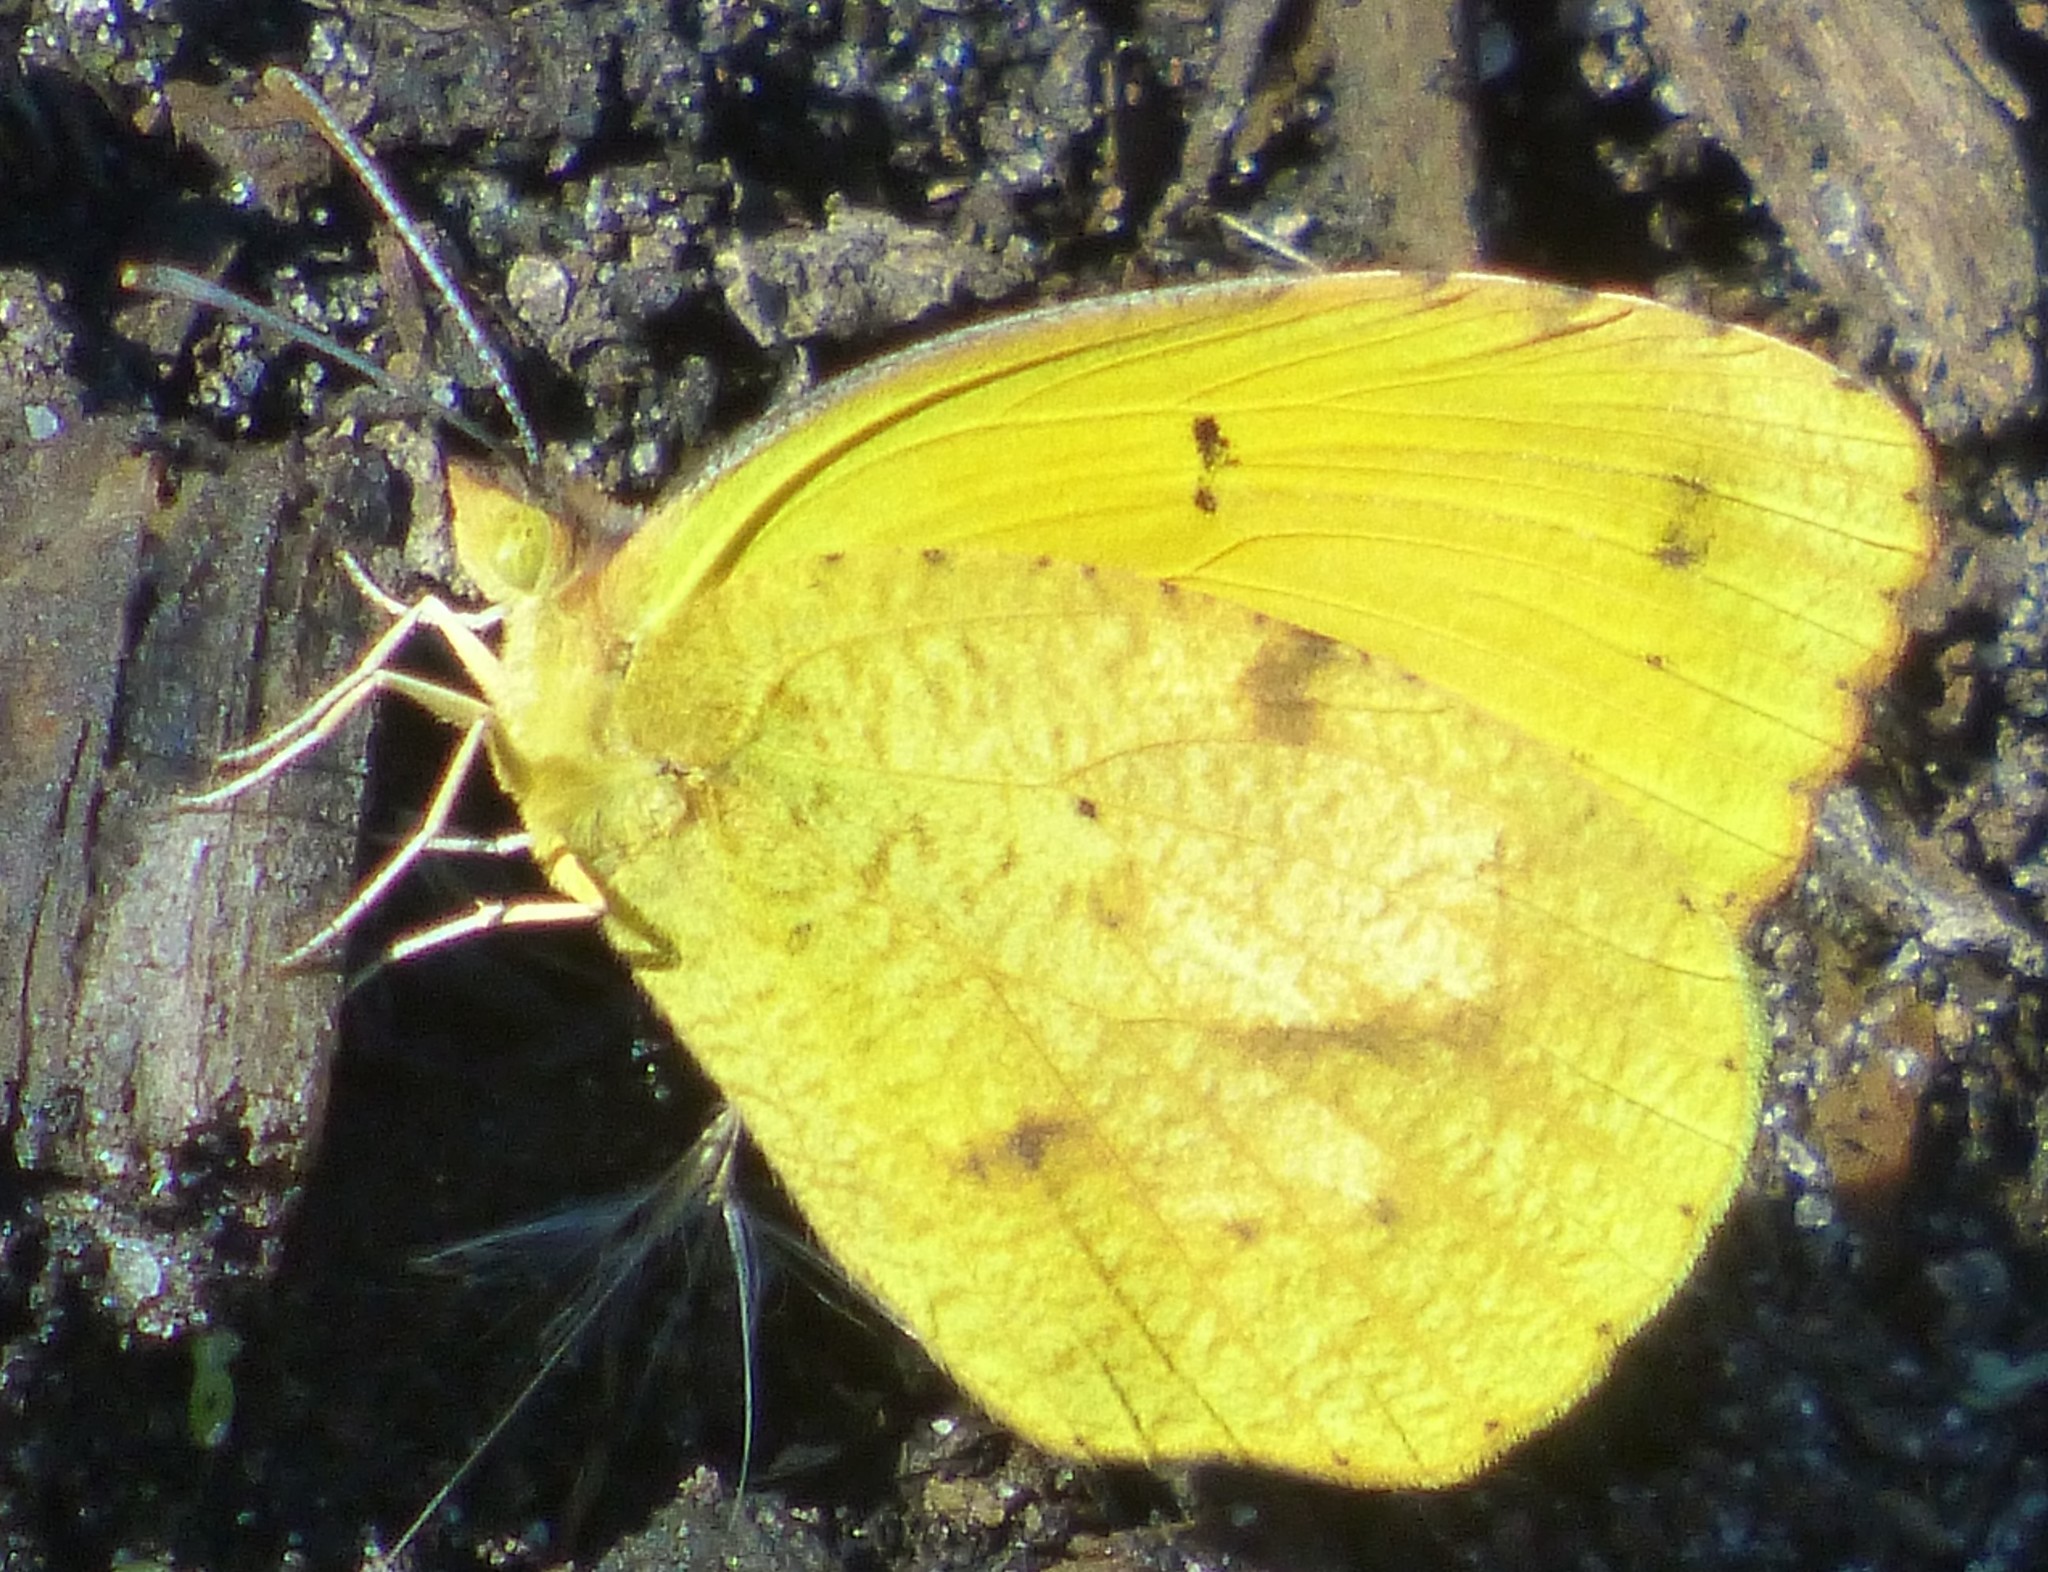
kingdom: Animalia
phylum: Arthropoda
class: Insecta
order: Lepidoptera
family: Pieridae
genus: Abaeis
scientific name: Abaeis nicippe
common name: Sleepy orange
